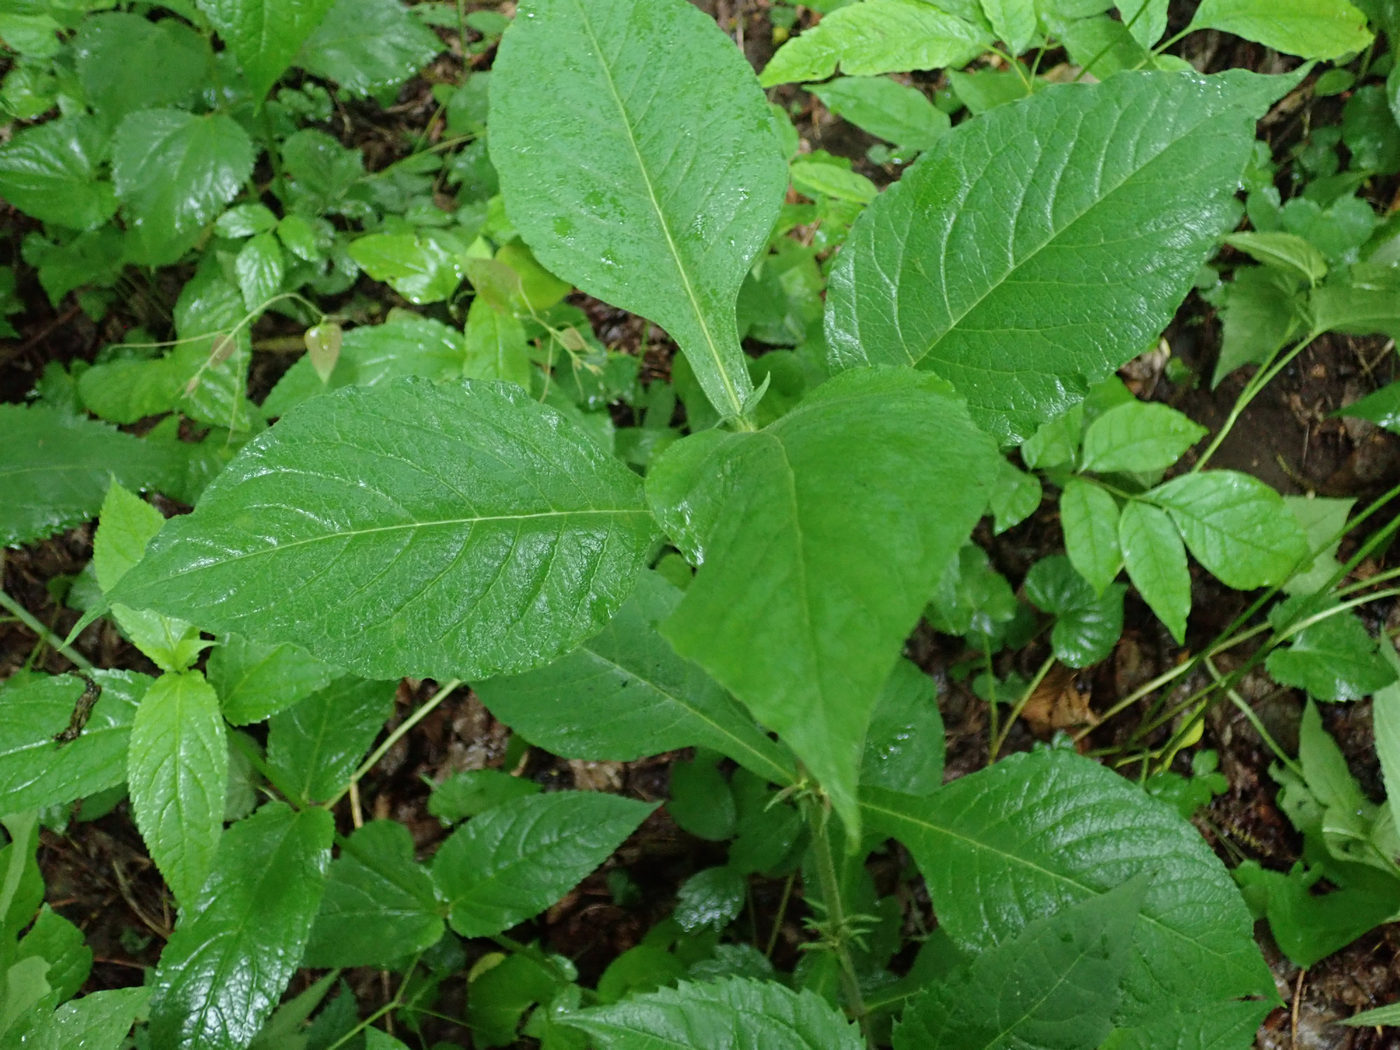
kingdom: Plantae
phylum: Tracheophyta
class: Magnoliopsida
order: Dipsacales
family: Caprifoliaceae
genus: Triosteum
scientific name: Triosteum aurantiacum
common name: Coffee tinker's-weed
